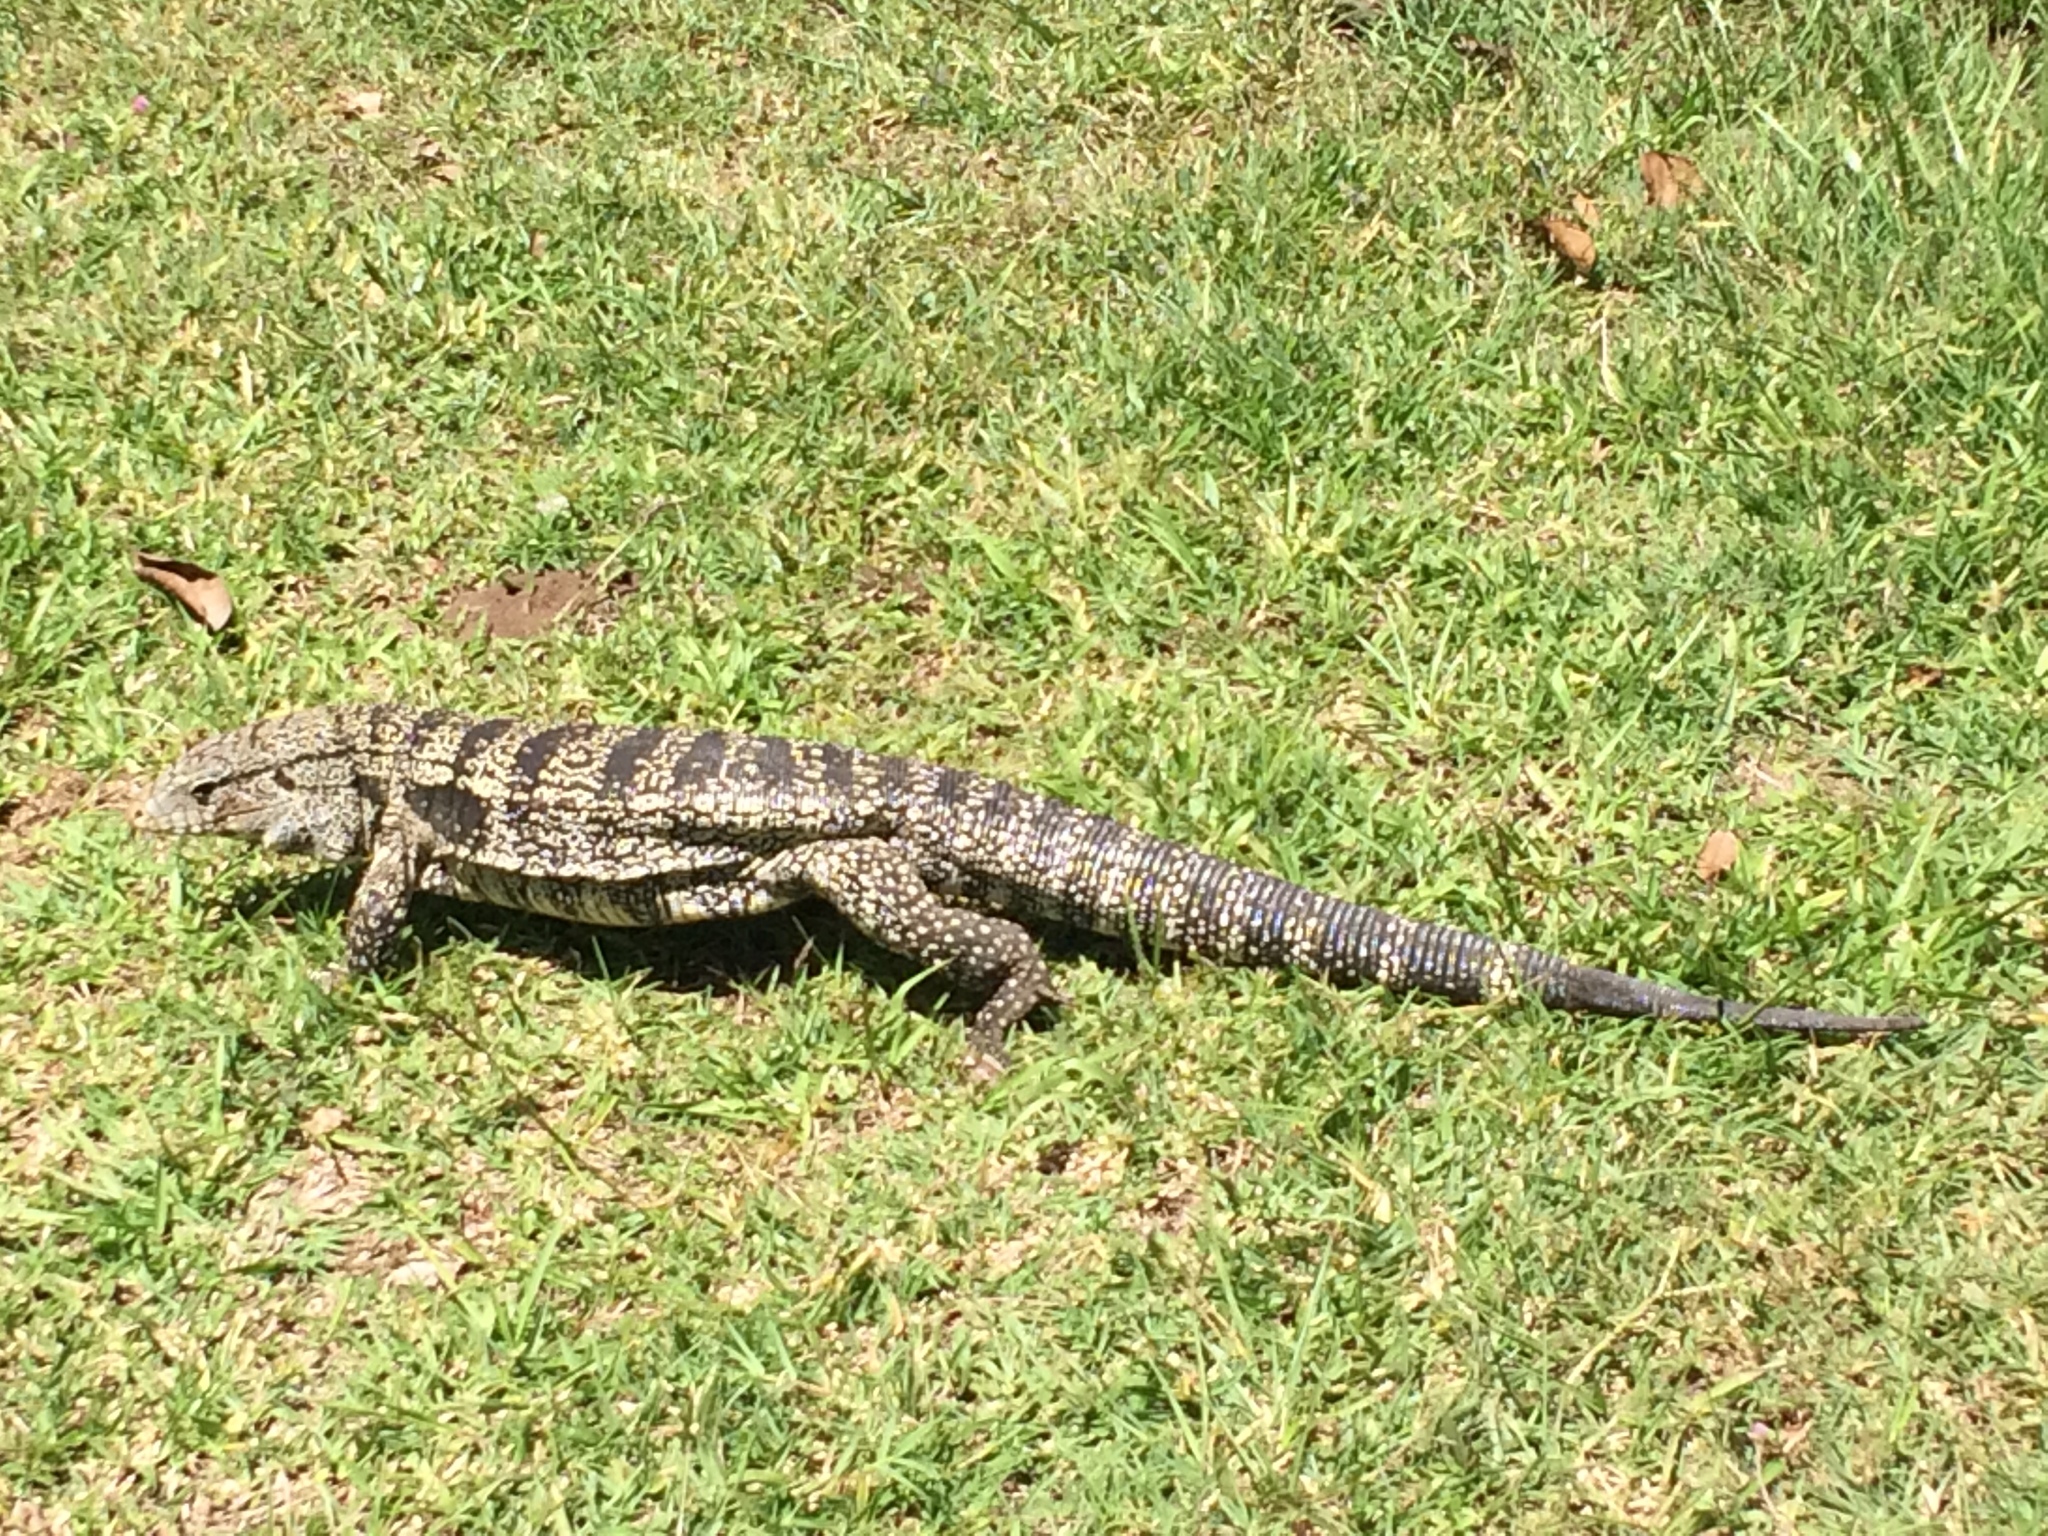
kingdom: Animalia
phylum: Chordata
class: Squamata
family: Teiidae
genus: Salvator
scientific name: Salvator merianae
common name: Argentine black and white tegu
